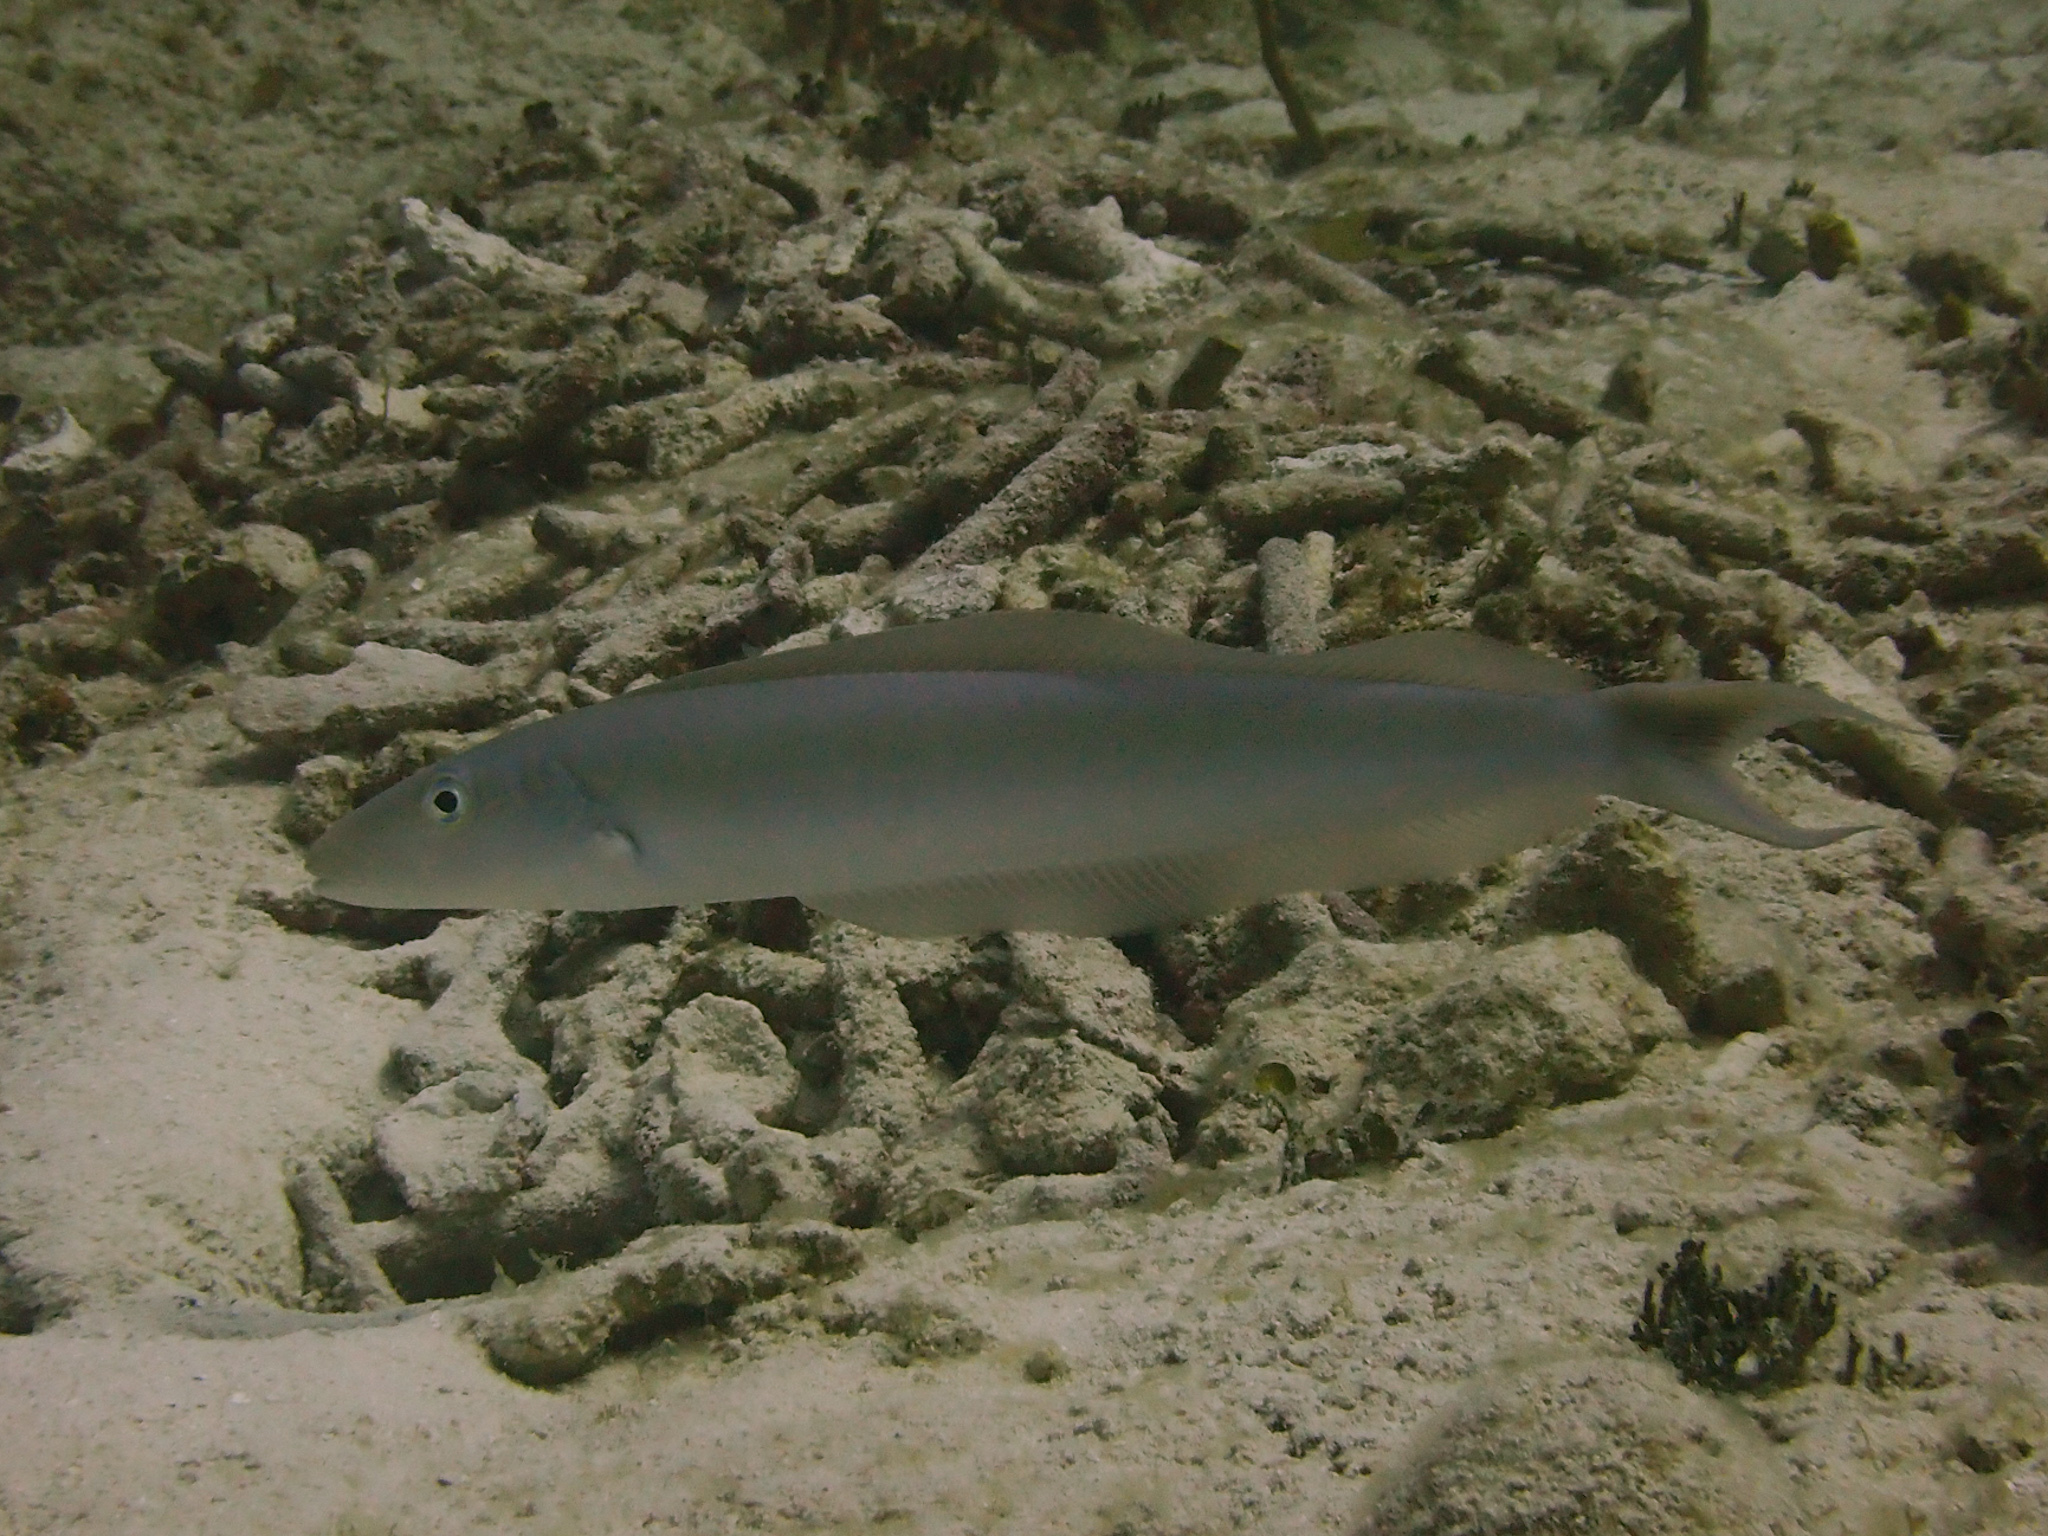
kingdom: Animalia
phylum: Chordata
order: Perciformes
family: Malacanthidae
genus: Malacanthus
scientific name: Malacanthus plumieri
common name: Sand tilefish
